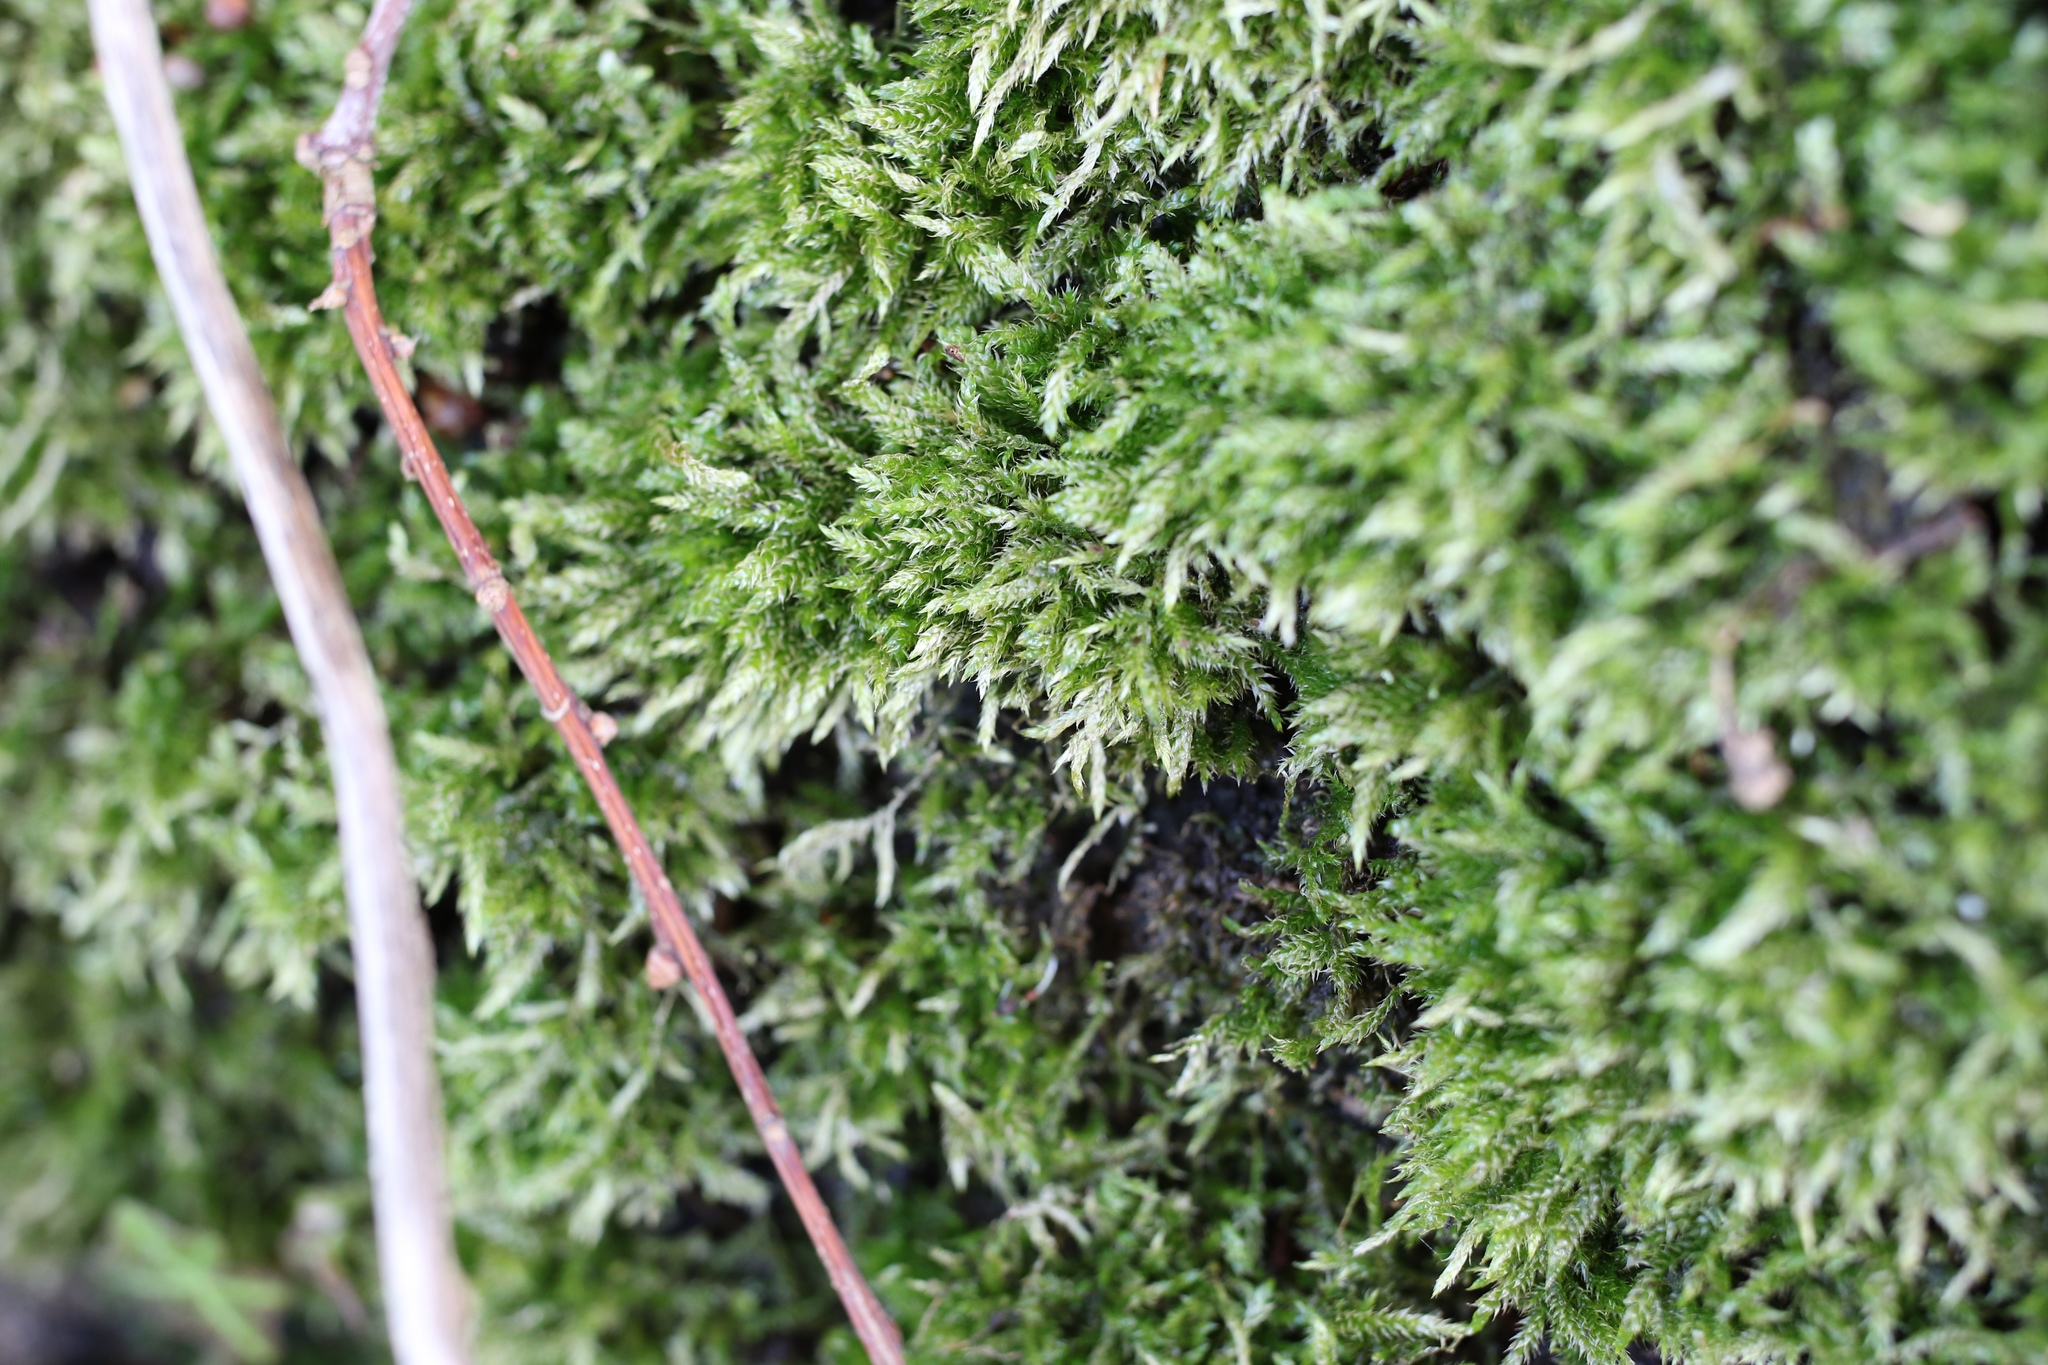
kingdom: Plantae
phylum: Bryophyta
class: Bryopsida
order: Hypnales
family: Hypnaceae
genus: Hypnum
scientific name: Hypnum resupinatum
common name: Supine plait-moss
